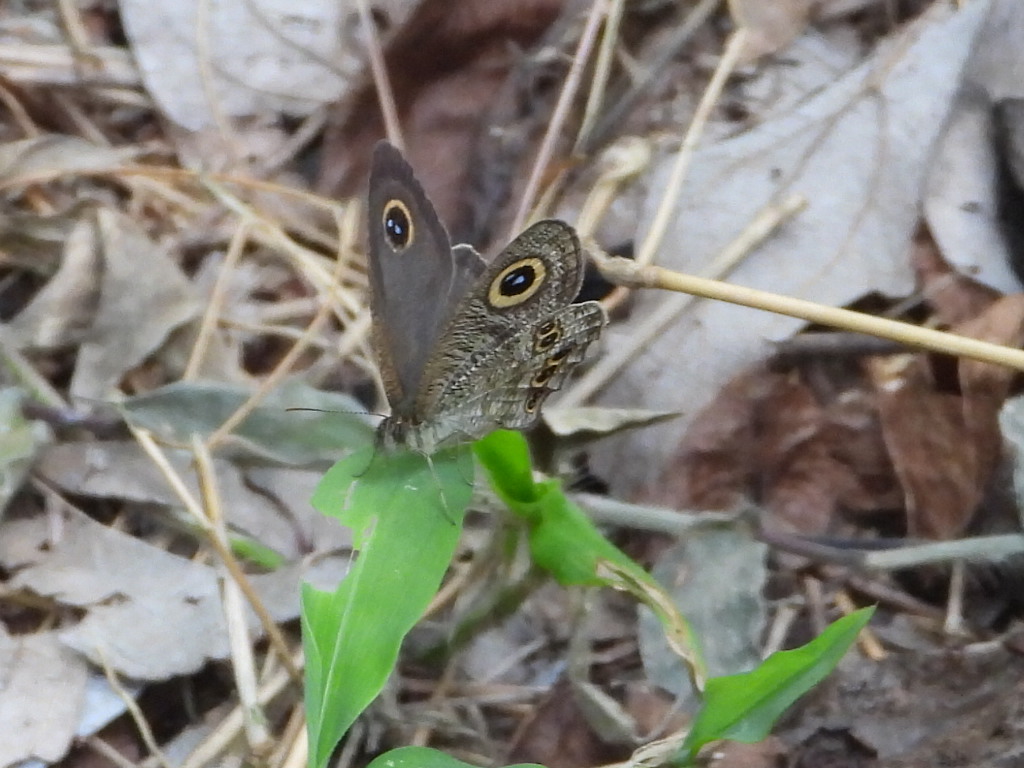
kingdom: Animalia
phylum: Arthropoda
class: Insecta
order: Lepidoptera
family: Nymphalidae
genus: Ypthima
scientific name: Ypthima baldus
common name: Common five-ring
